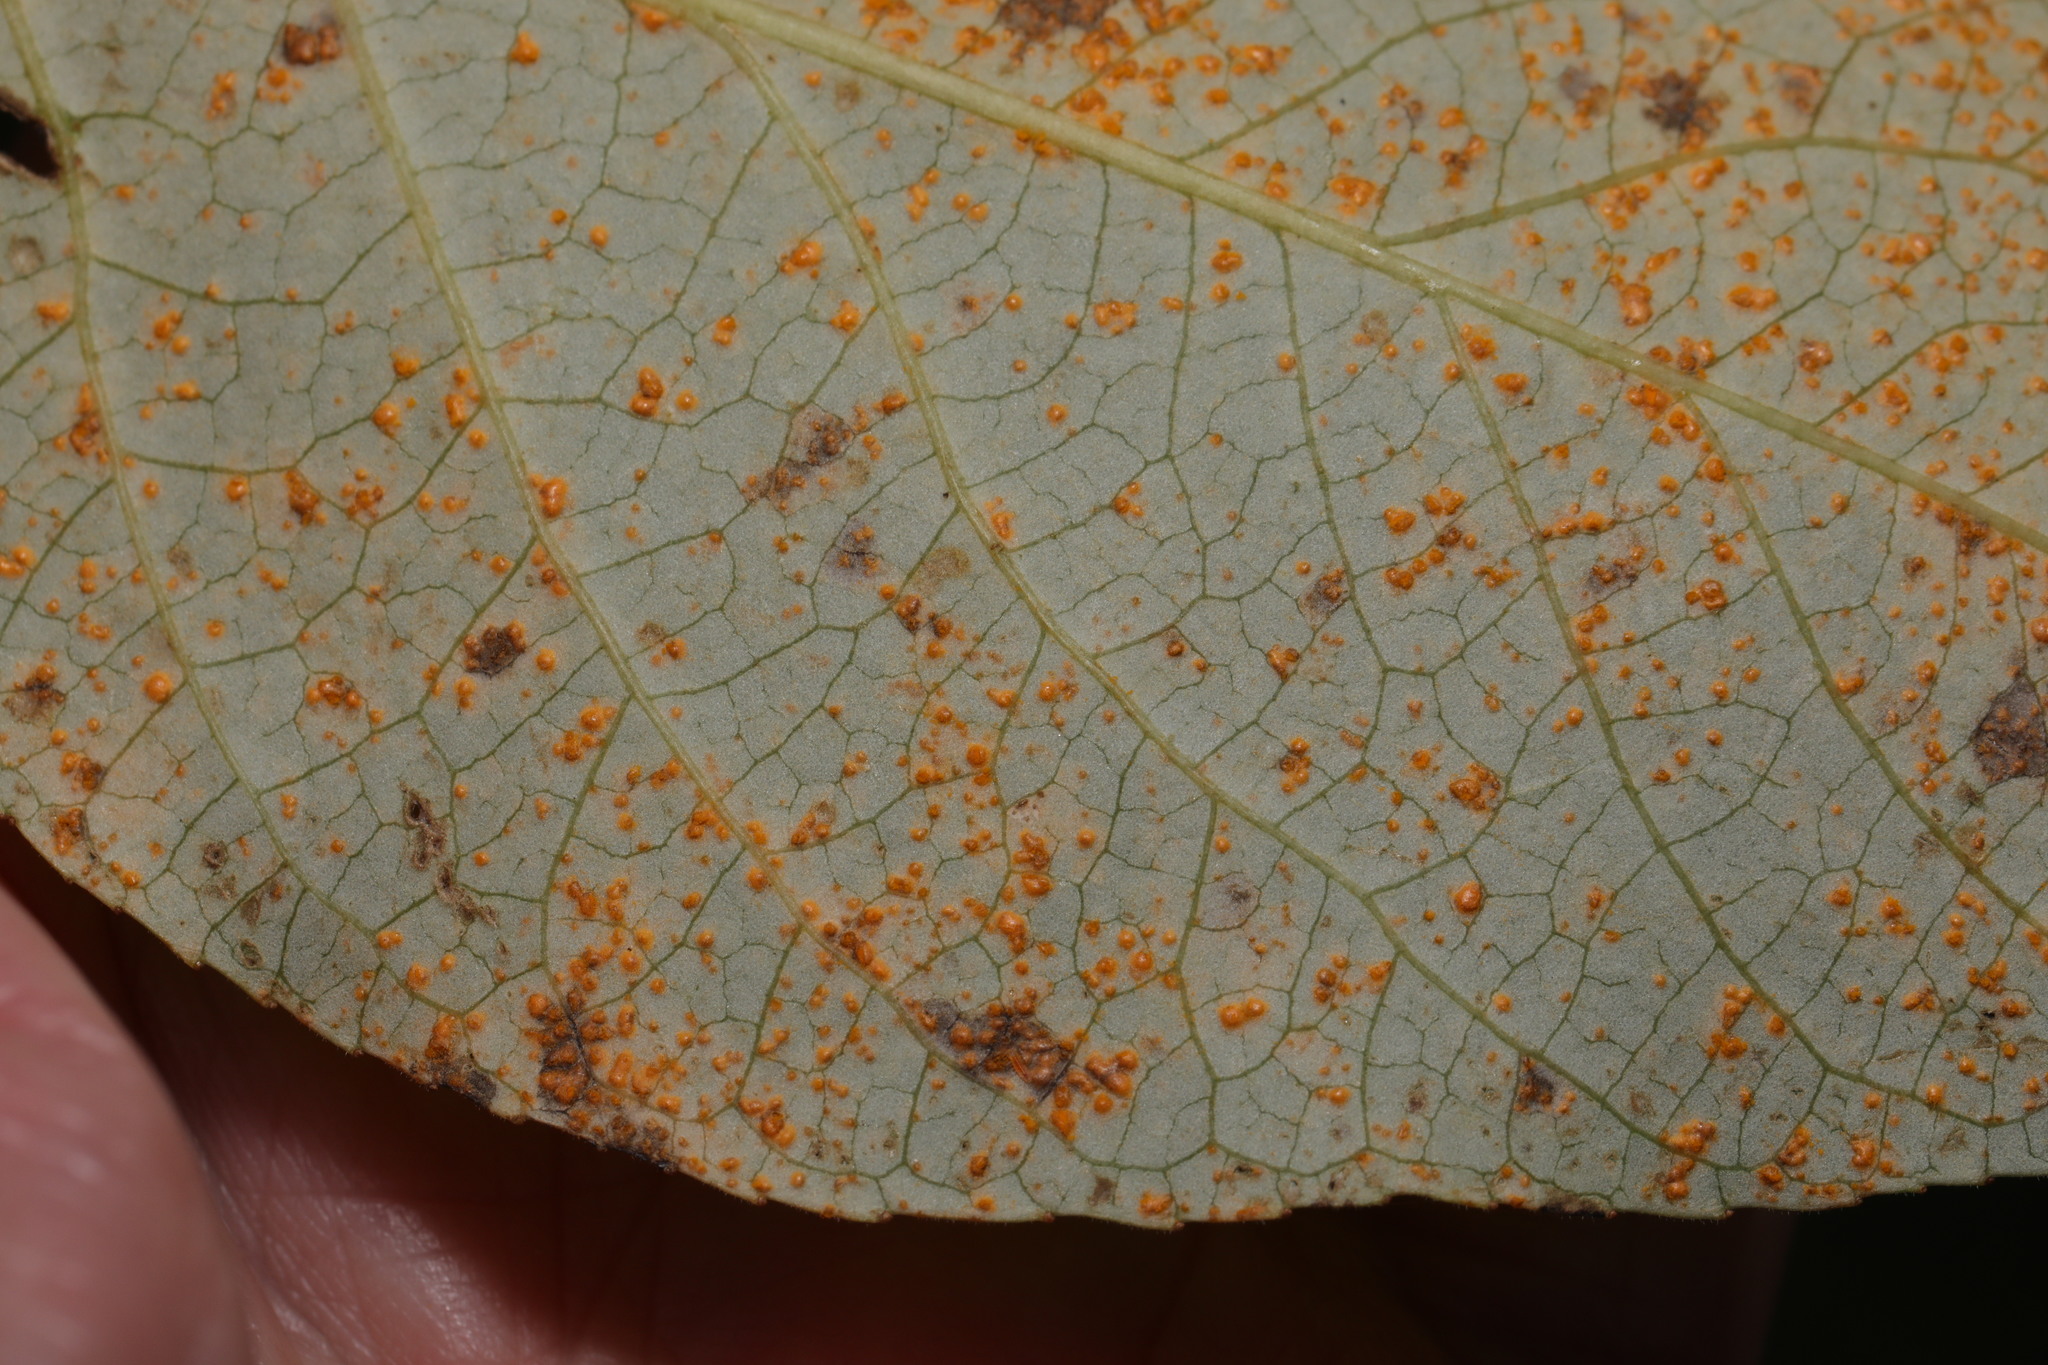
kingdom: Fungi
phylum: Basidiomycota
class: Pucciniomycetes
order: Pucciniales
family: Melampsoraceae
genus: Melampsora
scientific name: Melampsora laricis-populina
